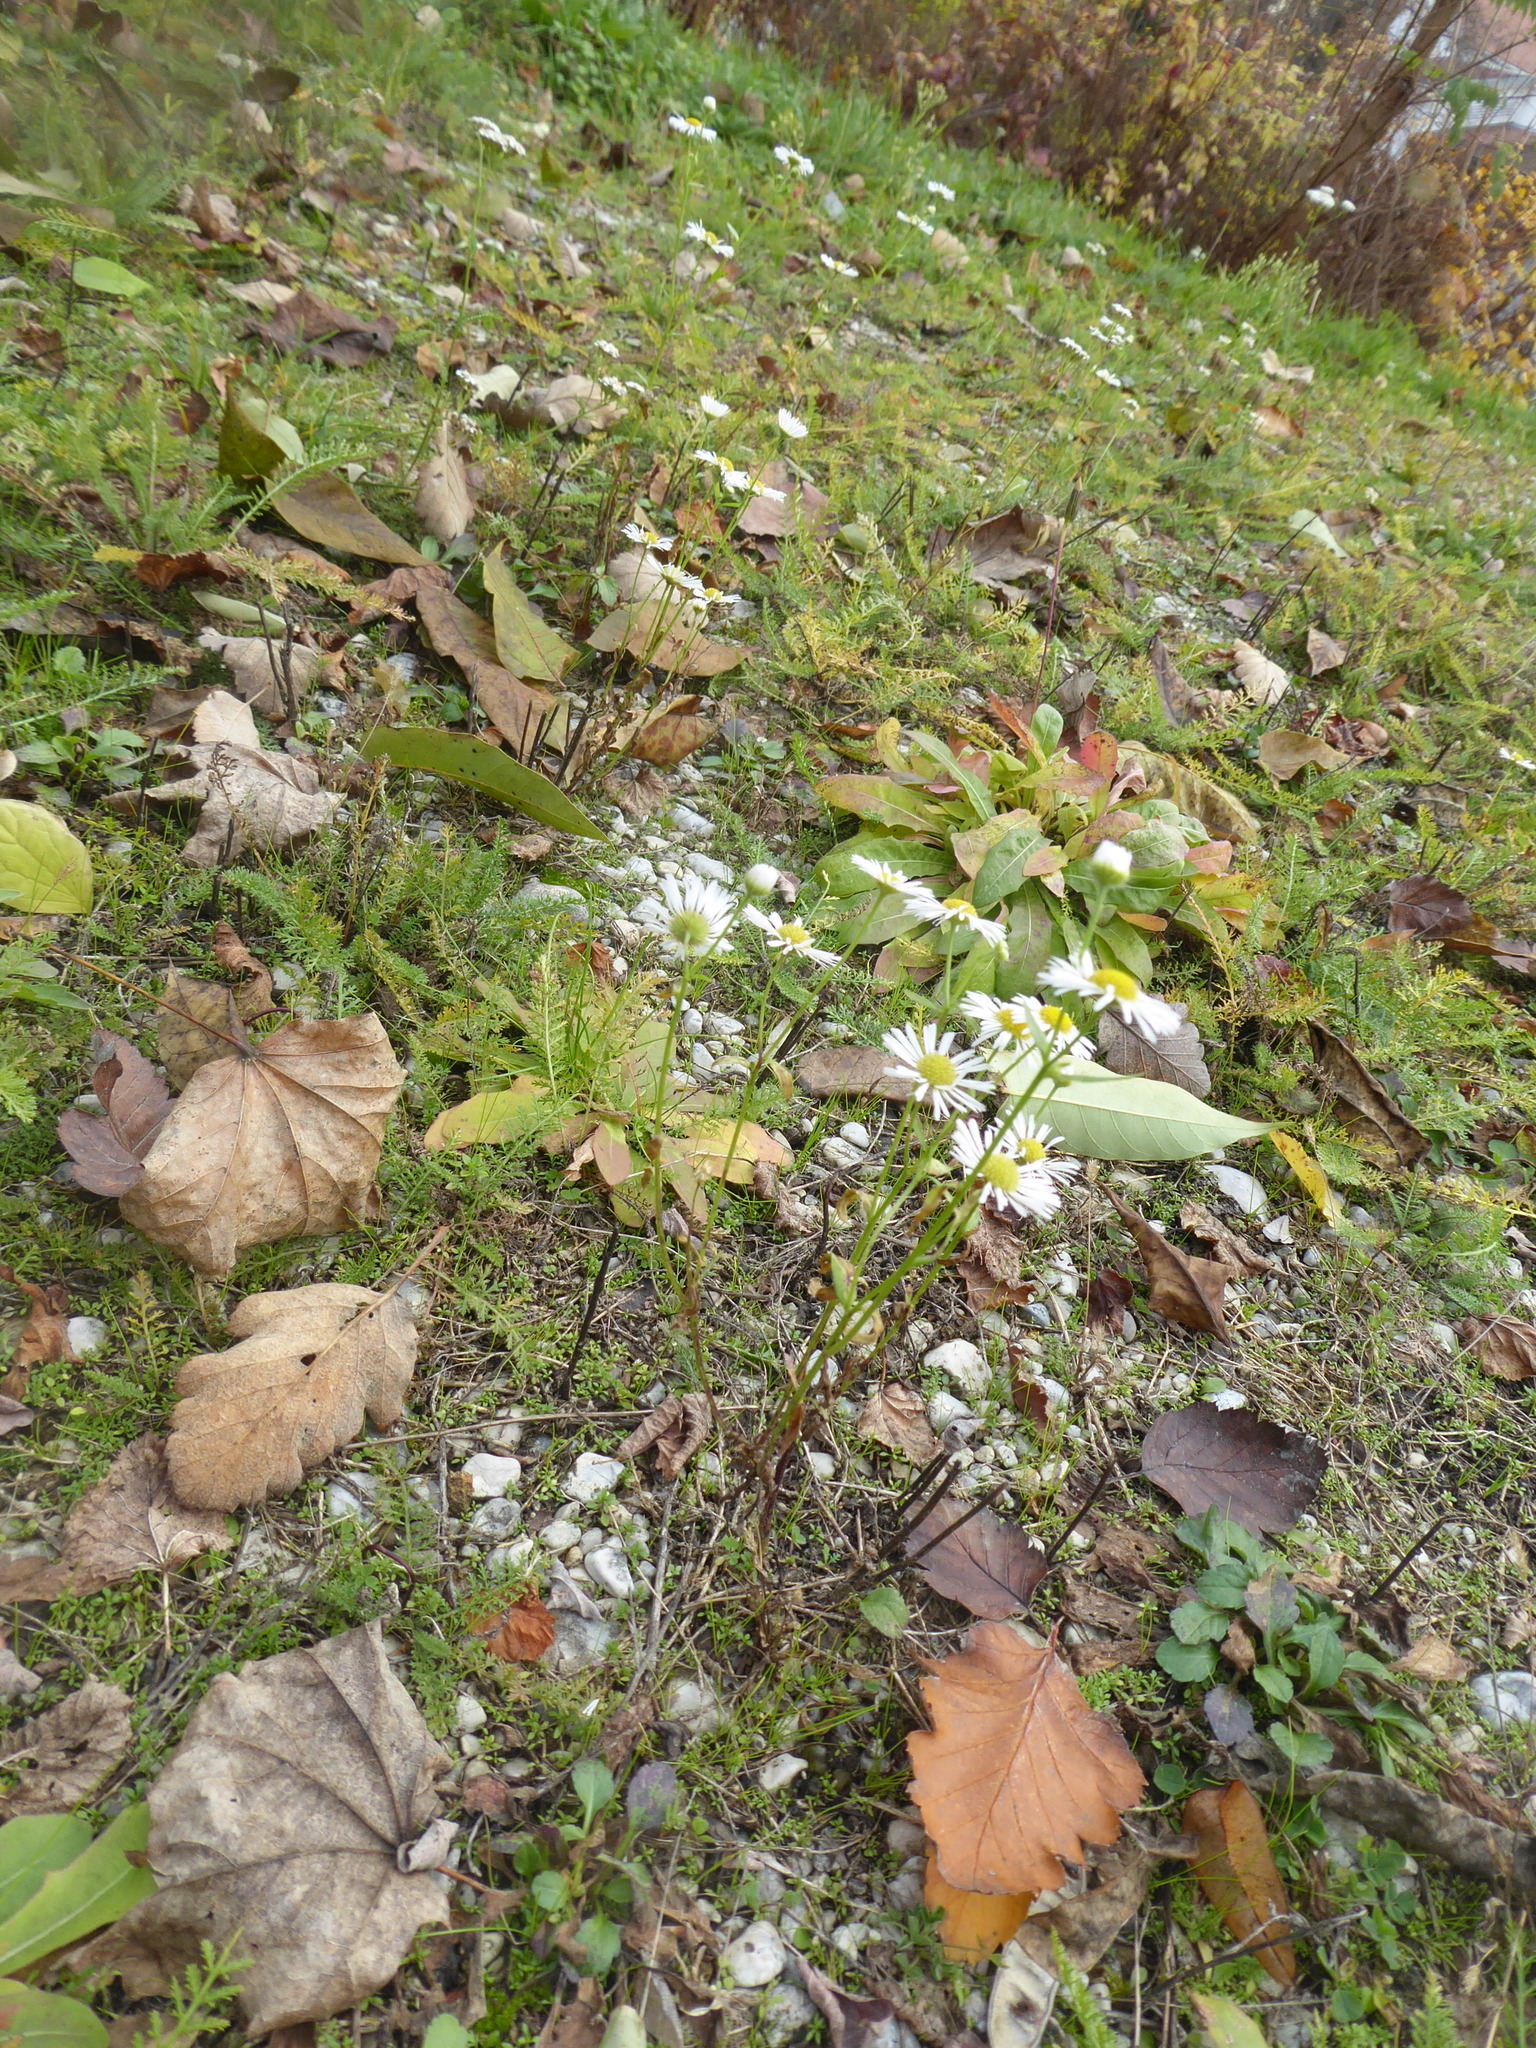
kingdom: Plantae
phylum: Tracheophyta
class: Magnoliopsida
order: Asterales
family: Asteraceae
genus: Erigeron
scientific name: Erigeron annuus
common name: Tall fleabane
